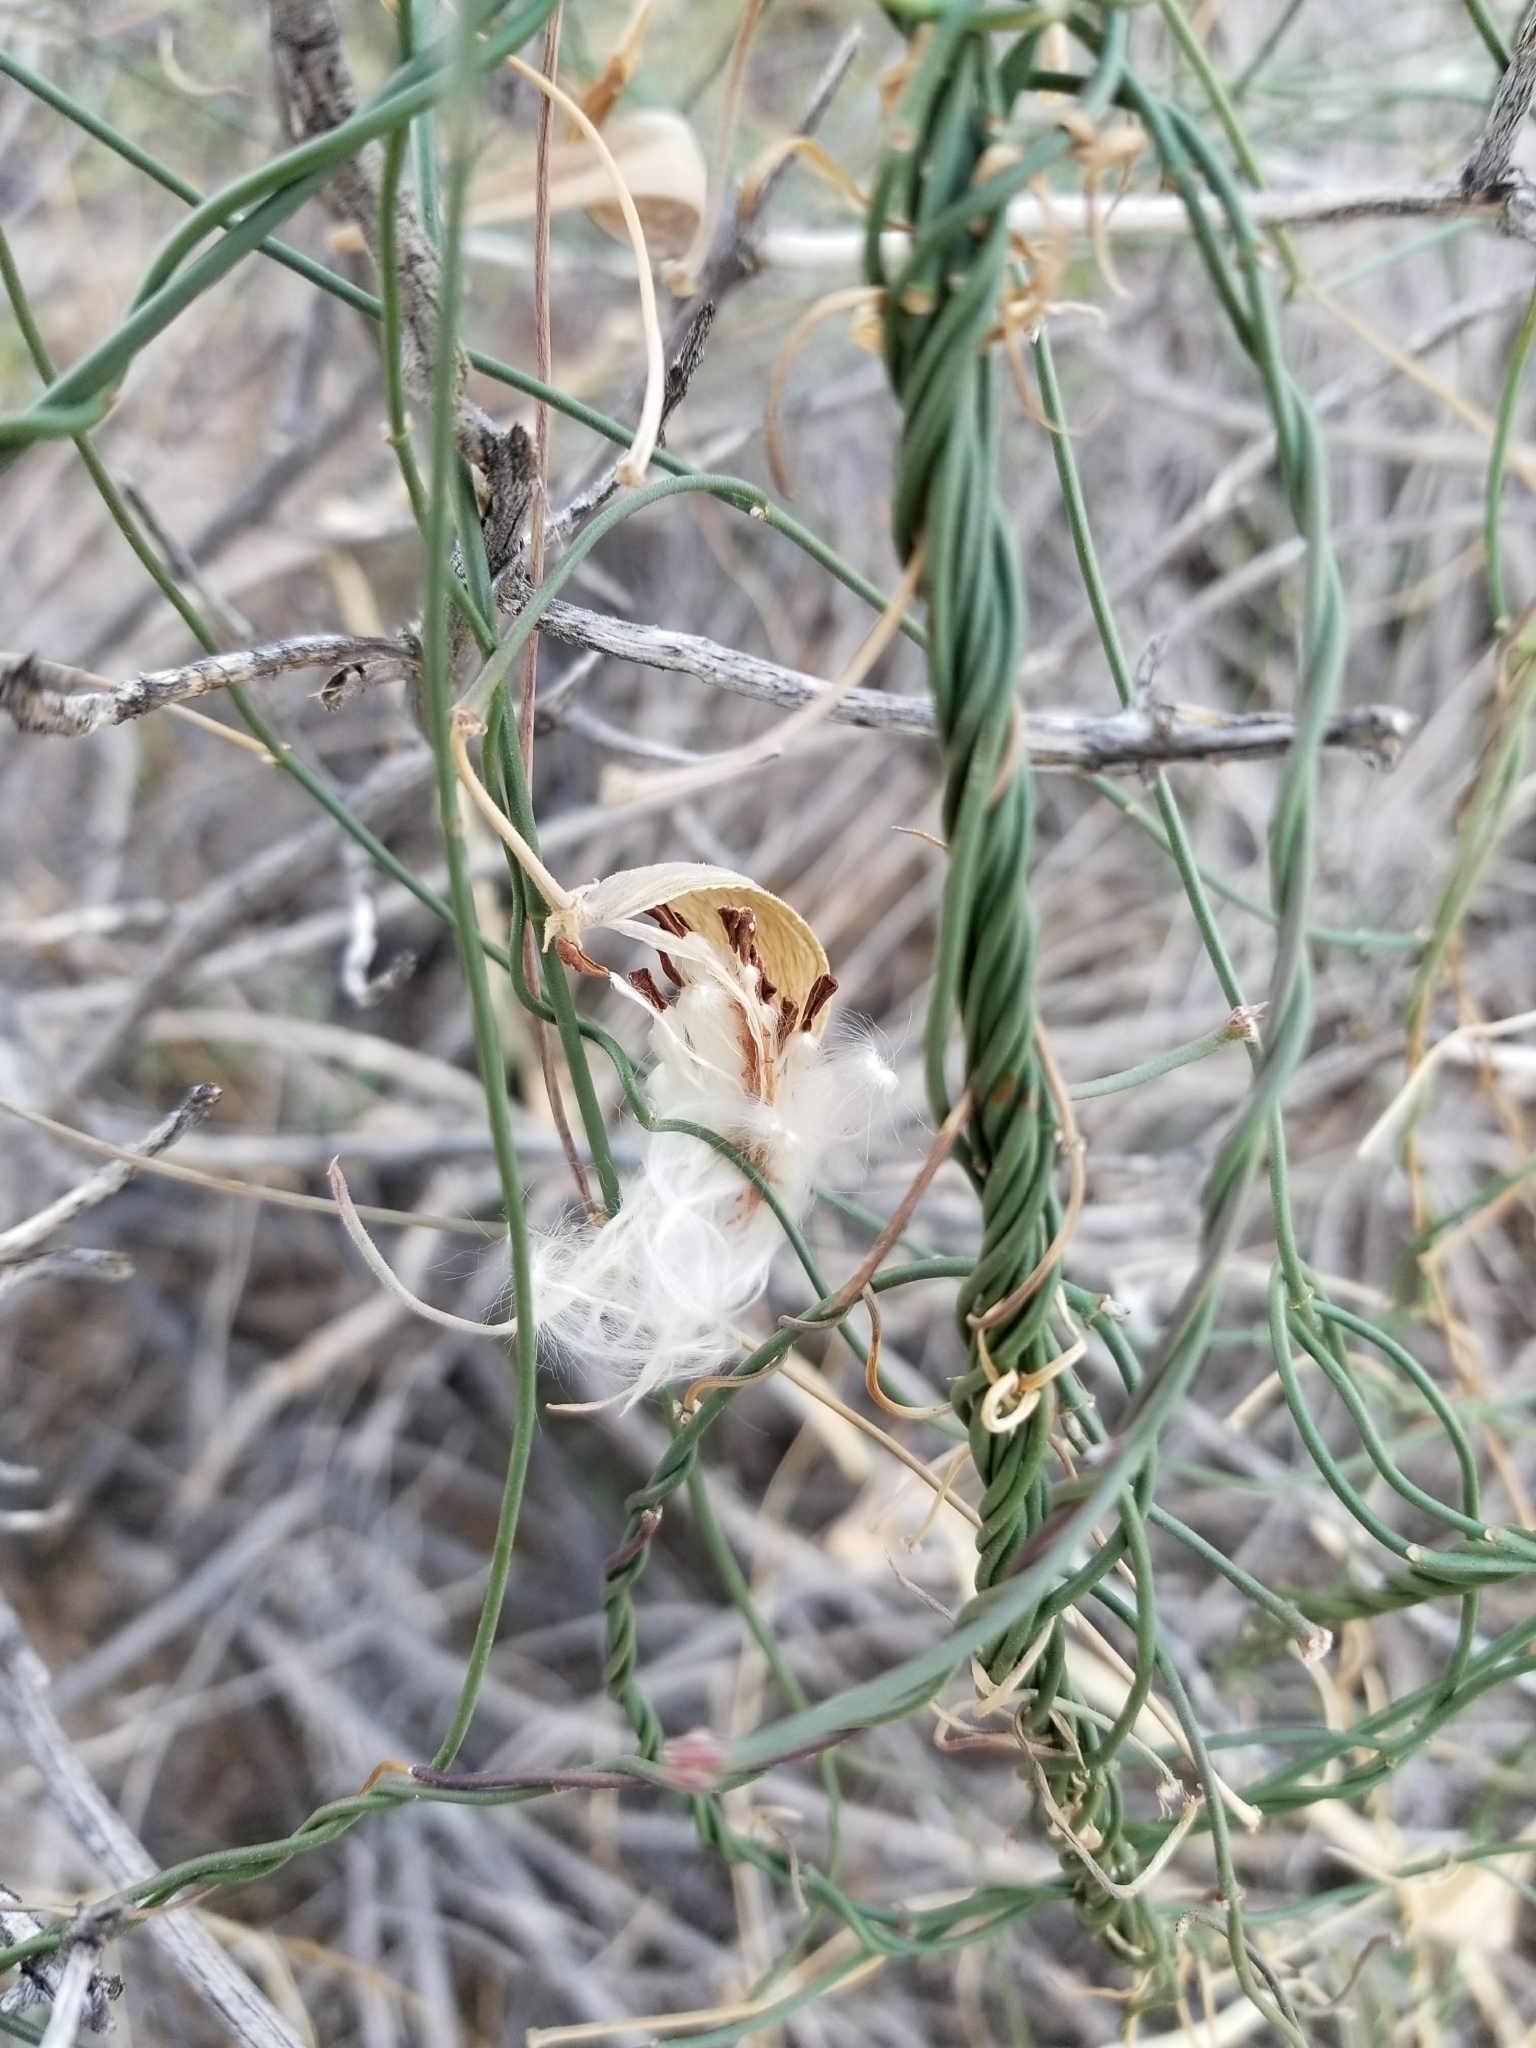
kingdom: Plantae
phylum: Tracheophyta
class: Magnoliopsida
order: Gentianales
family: Apocynaceae
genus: Funastrum
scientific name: Funastrum heterophyllum
